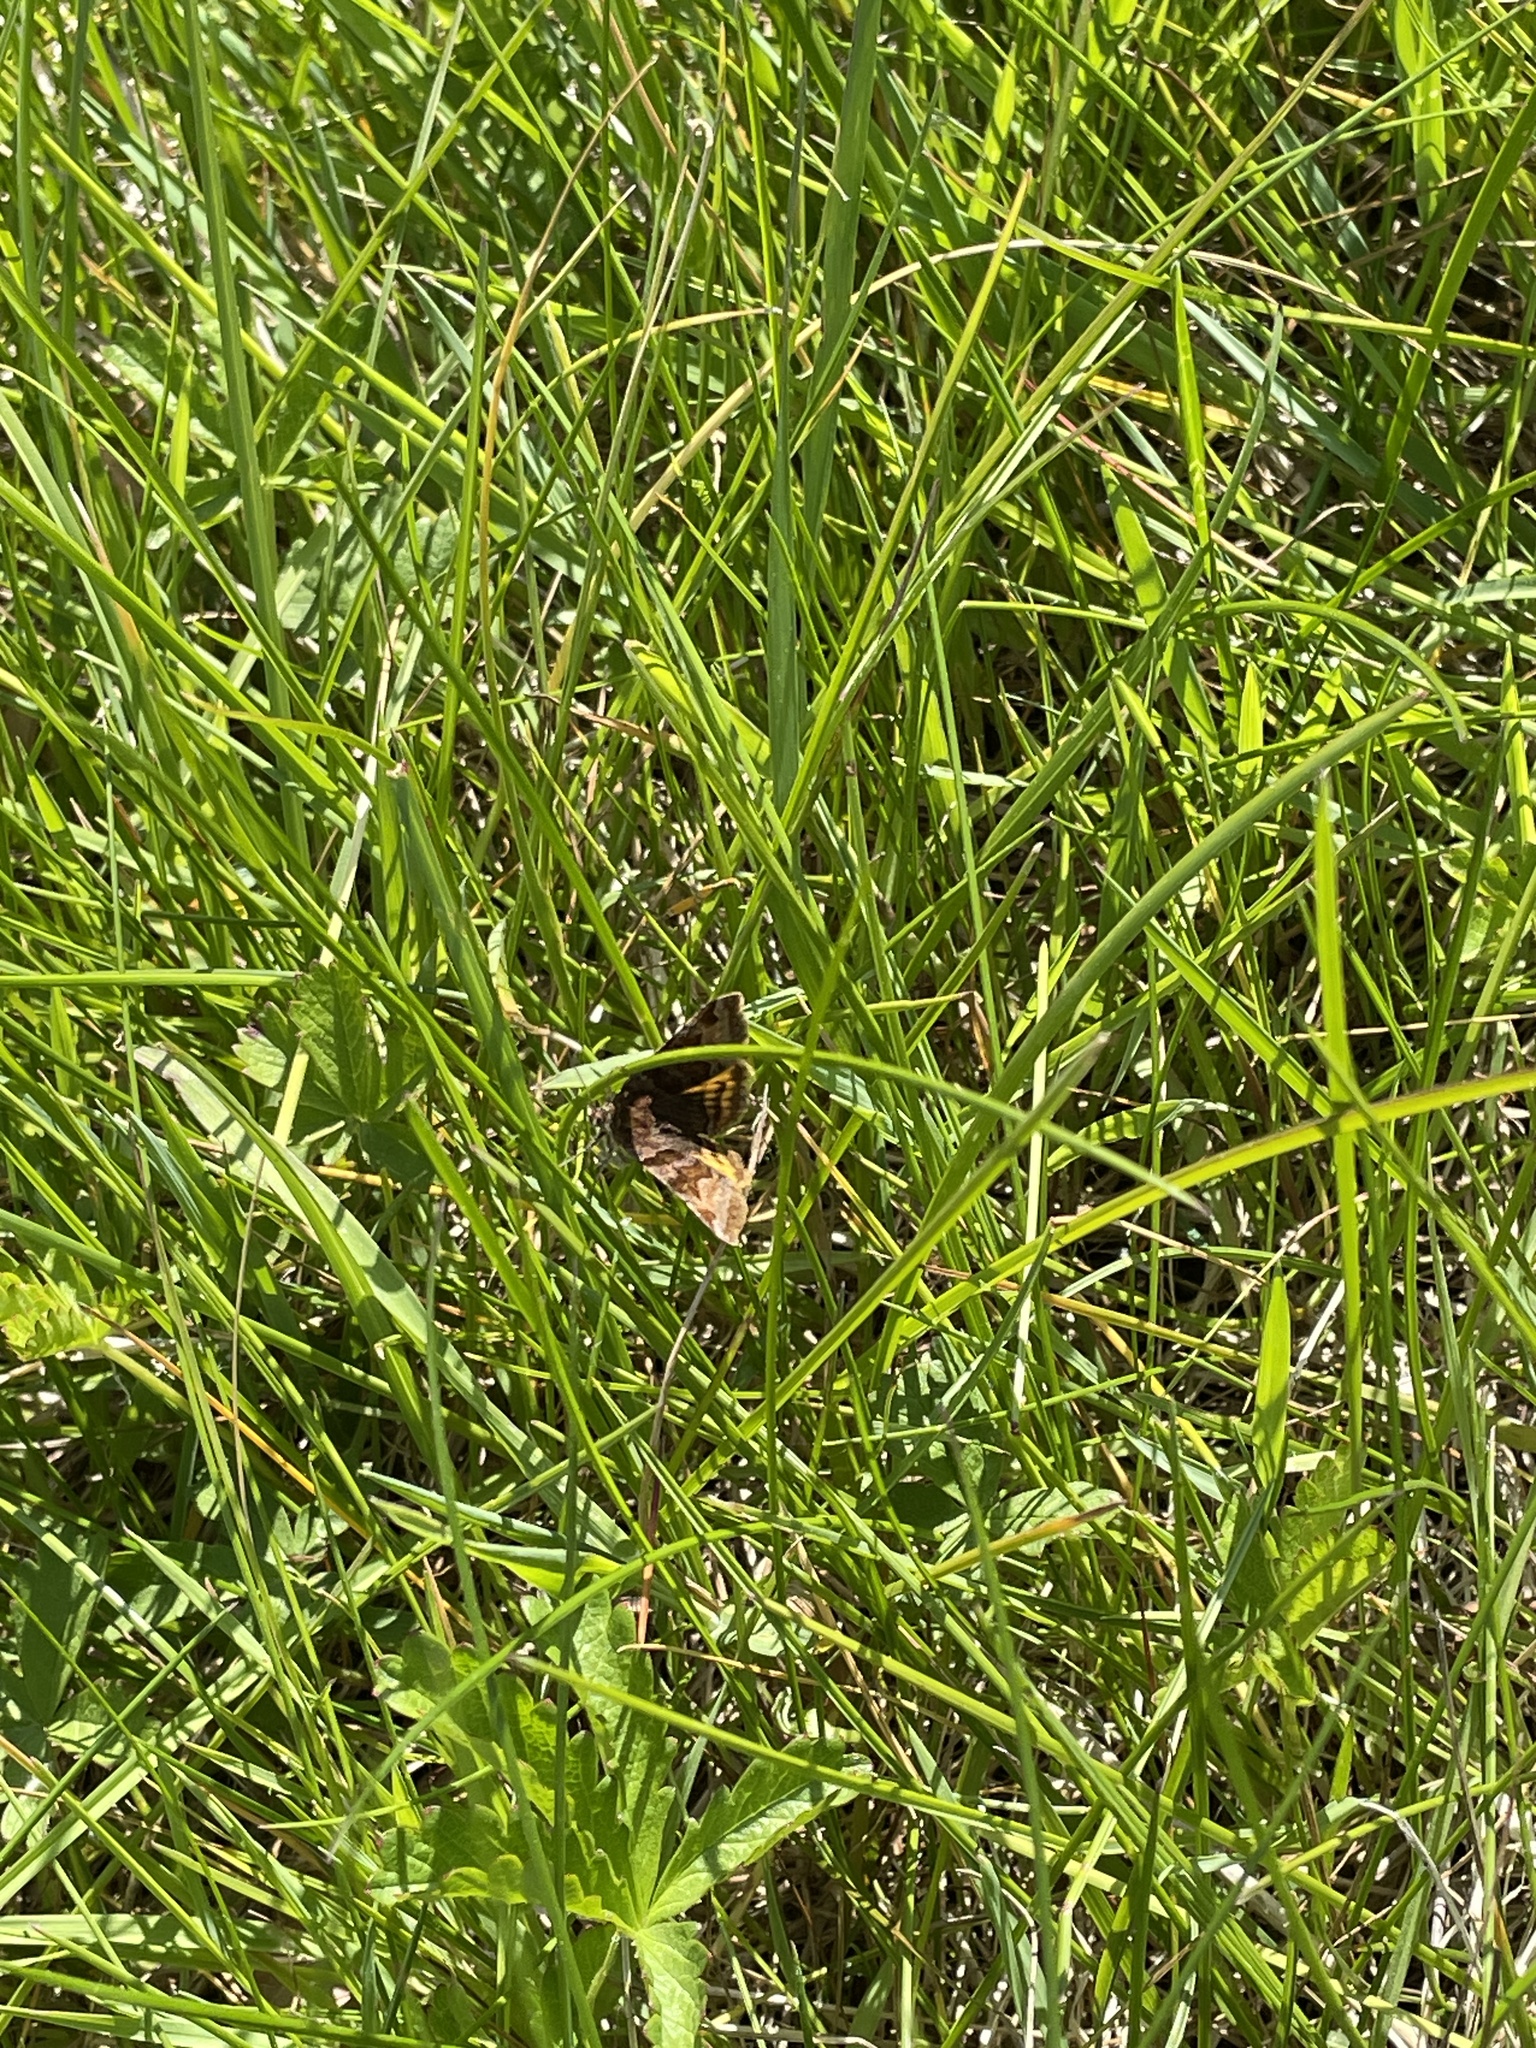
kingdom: Animalia
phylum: Arthropoda
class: Insecta
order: Lepidoptera
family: Erebidae
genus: Euclidia
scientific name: Euclidia glyphica
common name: Burnet companion
